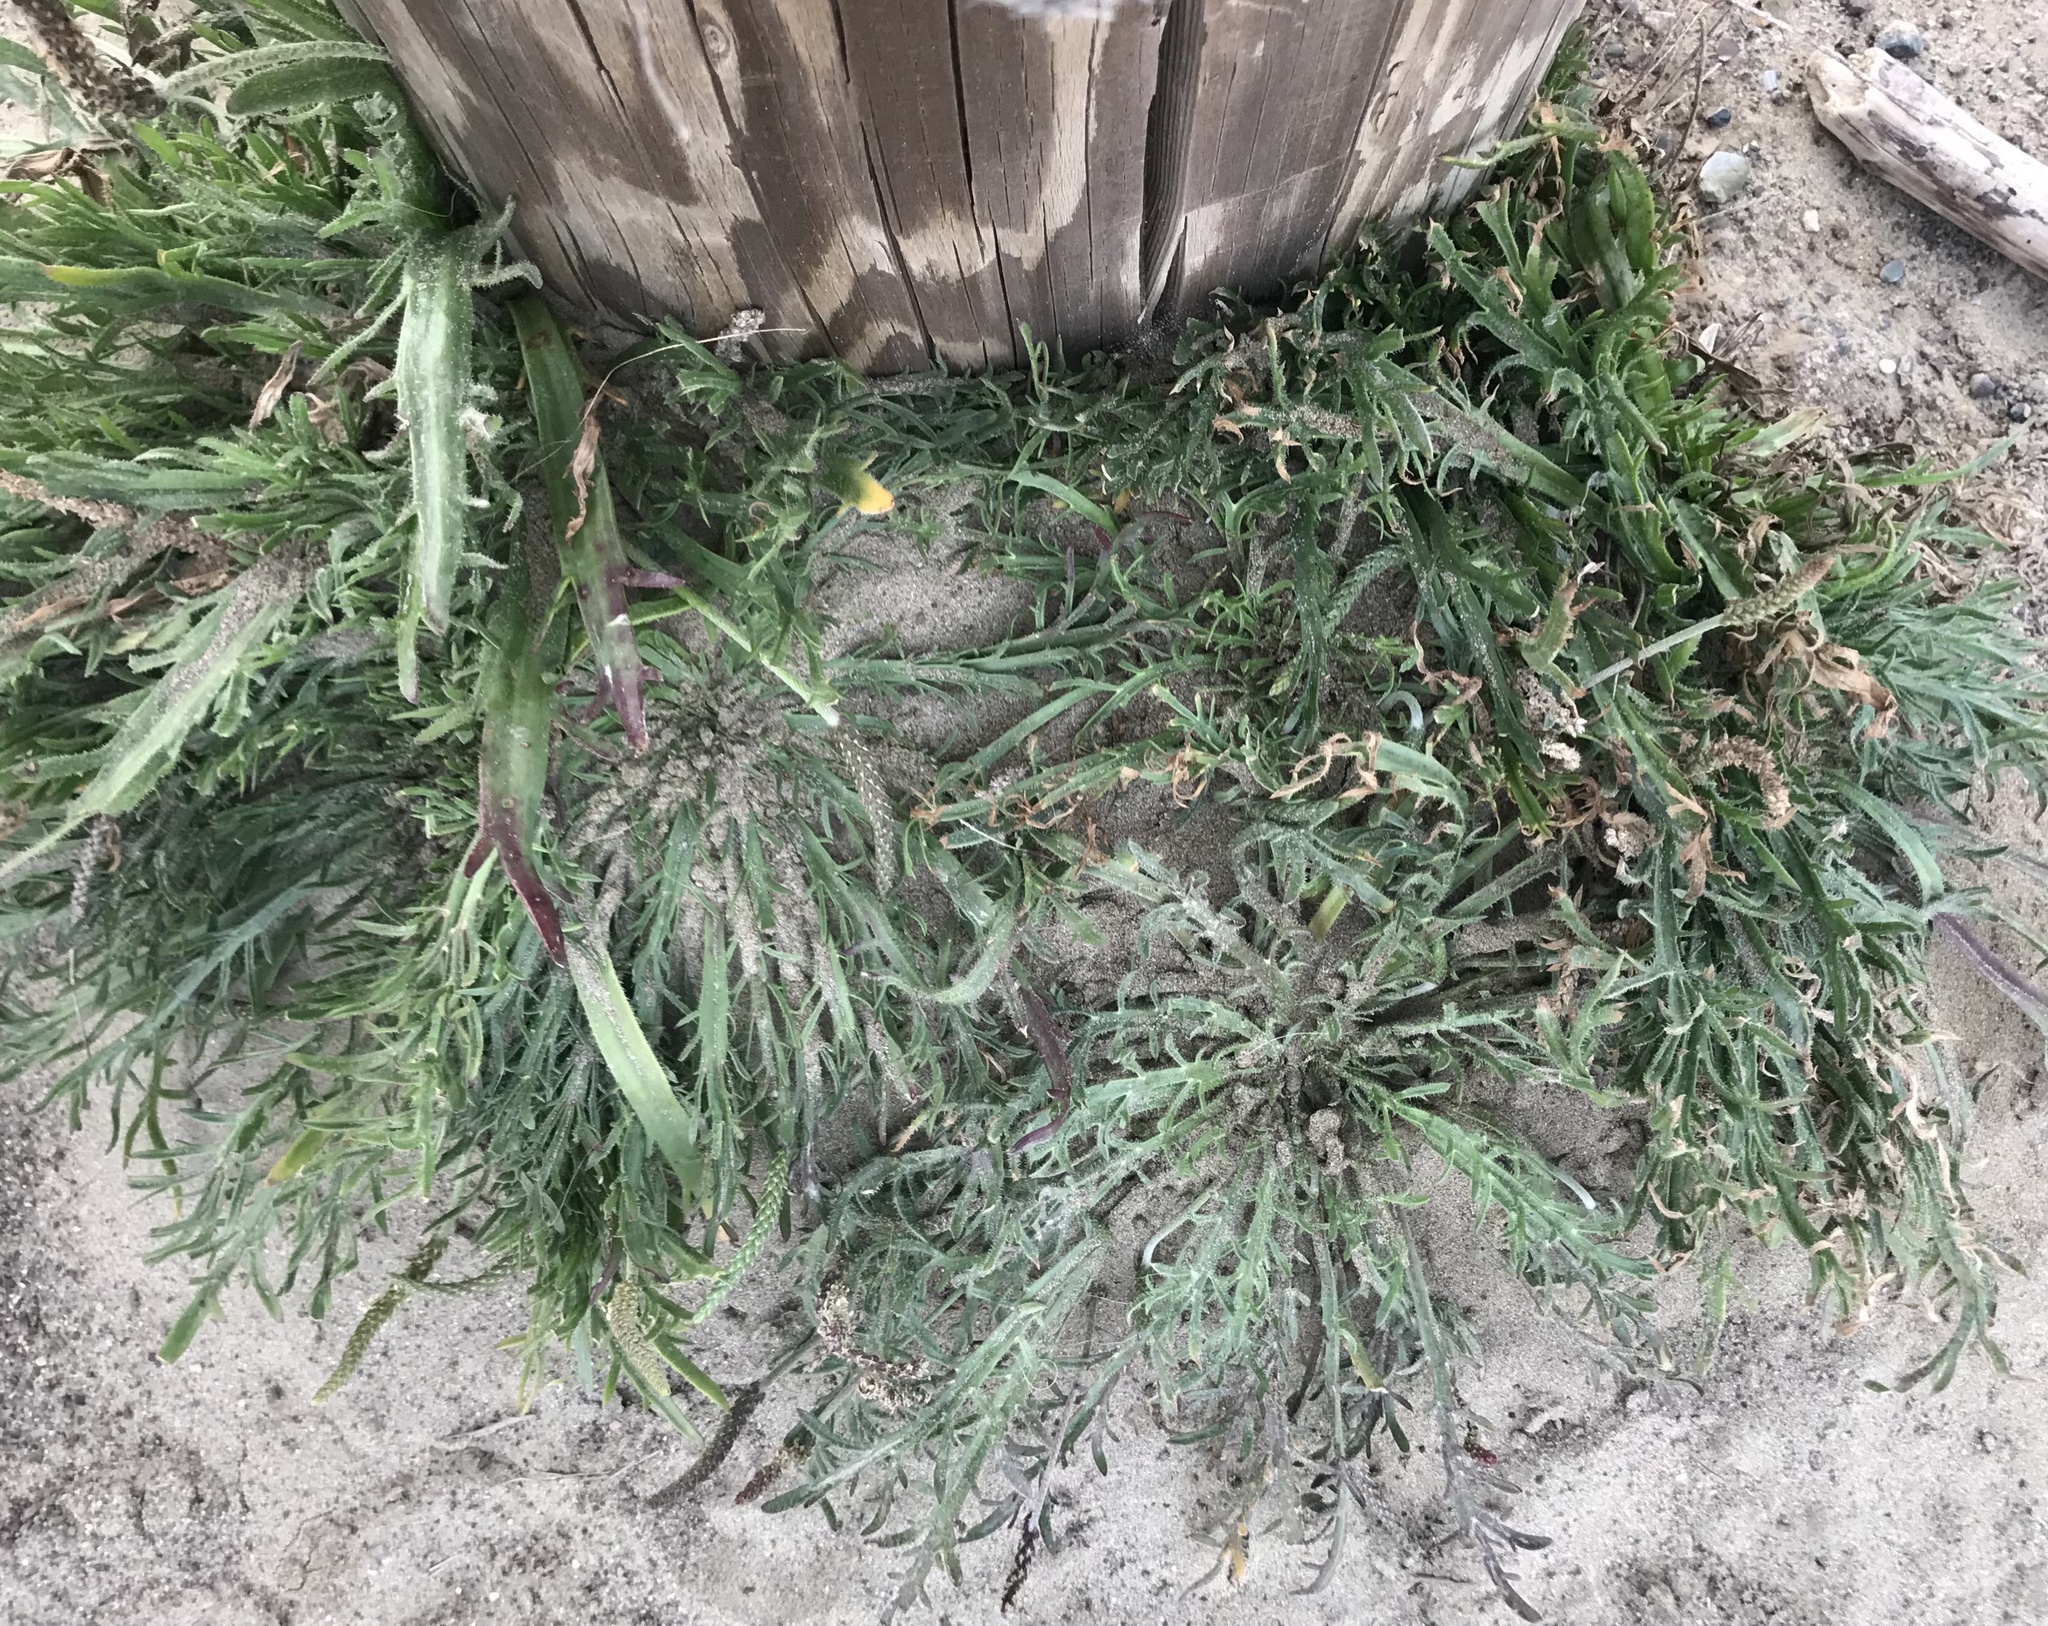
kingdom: Plantae
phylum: Tracheophyta
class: Magnoliopsida
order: Lamiales
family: Plantaginaceae
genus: Plantago
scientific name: Plantago coronopus
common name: Buck's-horn plantain
